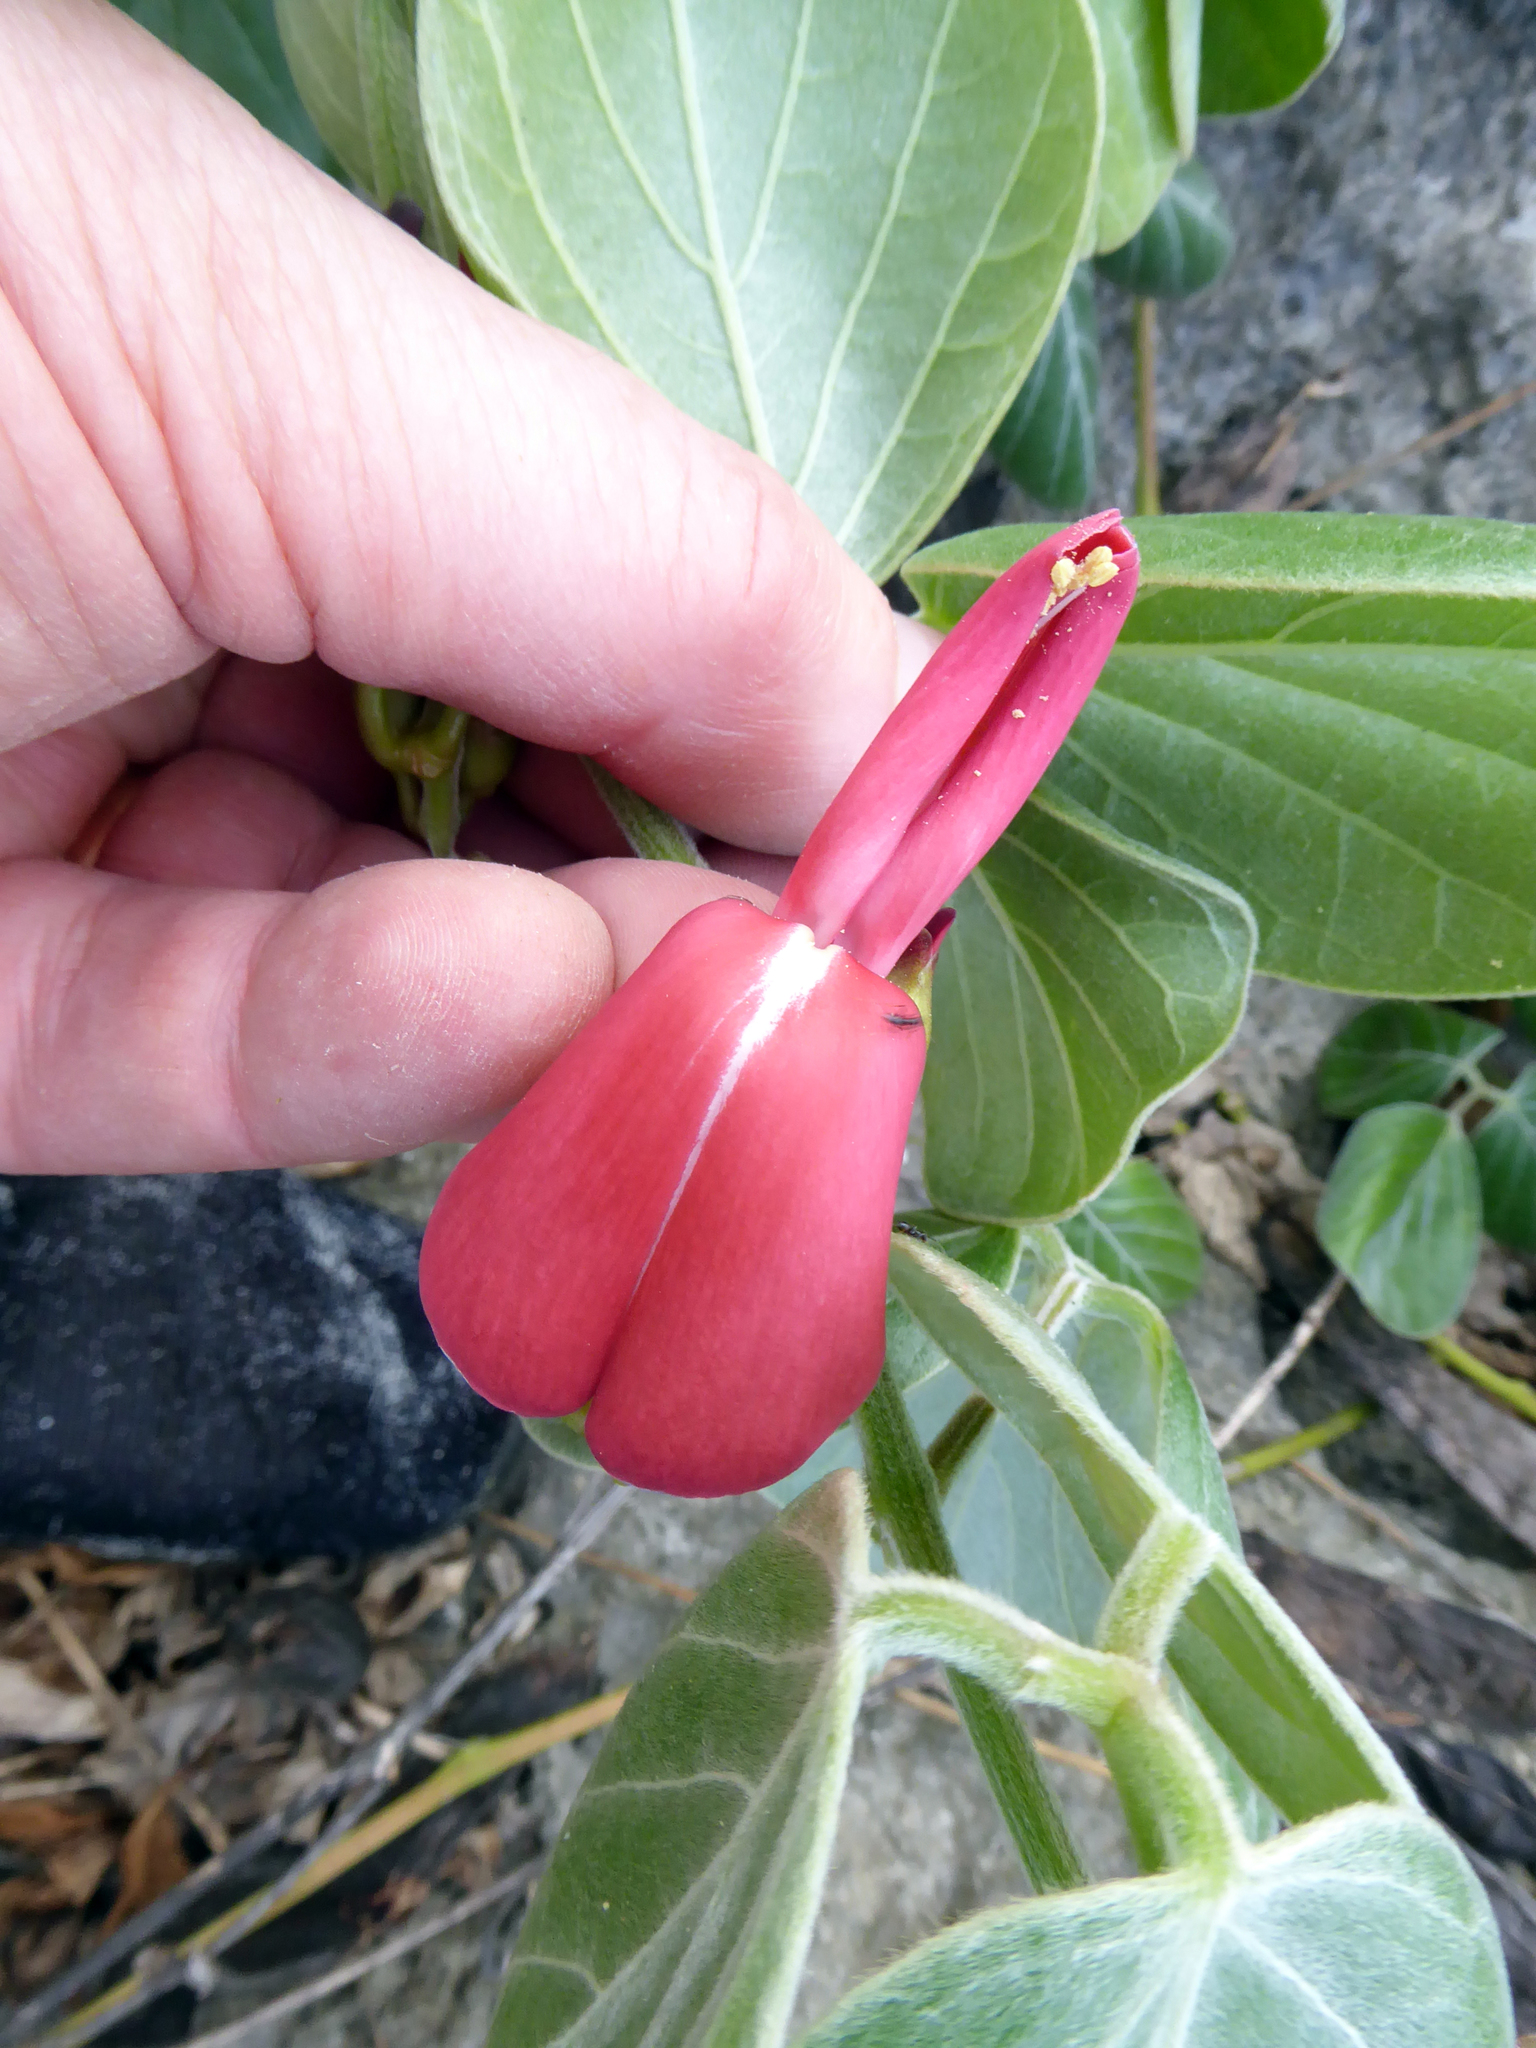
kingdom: Plantae
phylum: Tracheophyta
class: Magnoliopsida
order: Fabales
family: Fabaceae
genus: Canavalia
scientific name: Canavalia sericea
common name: Silky jackbean
